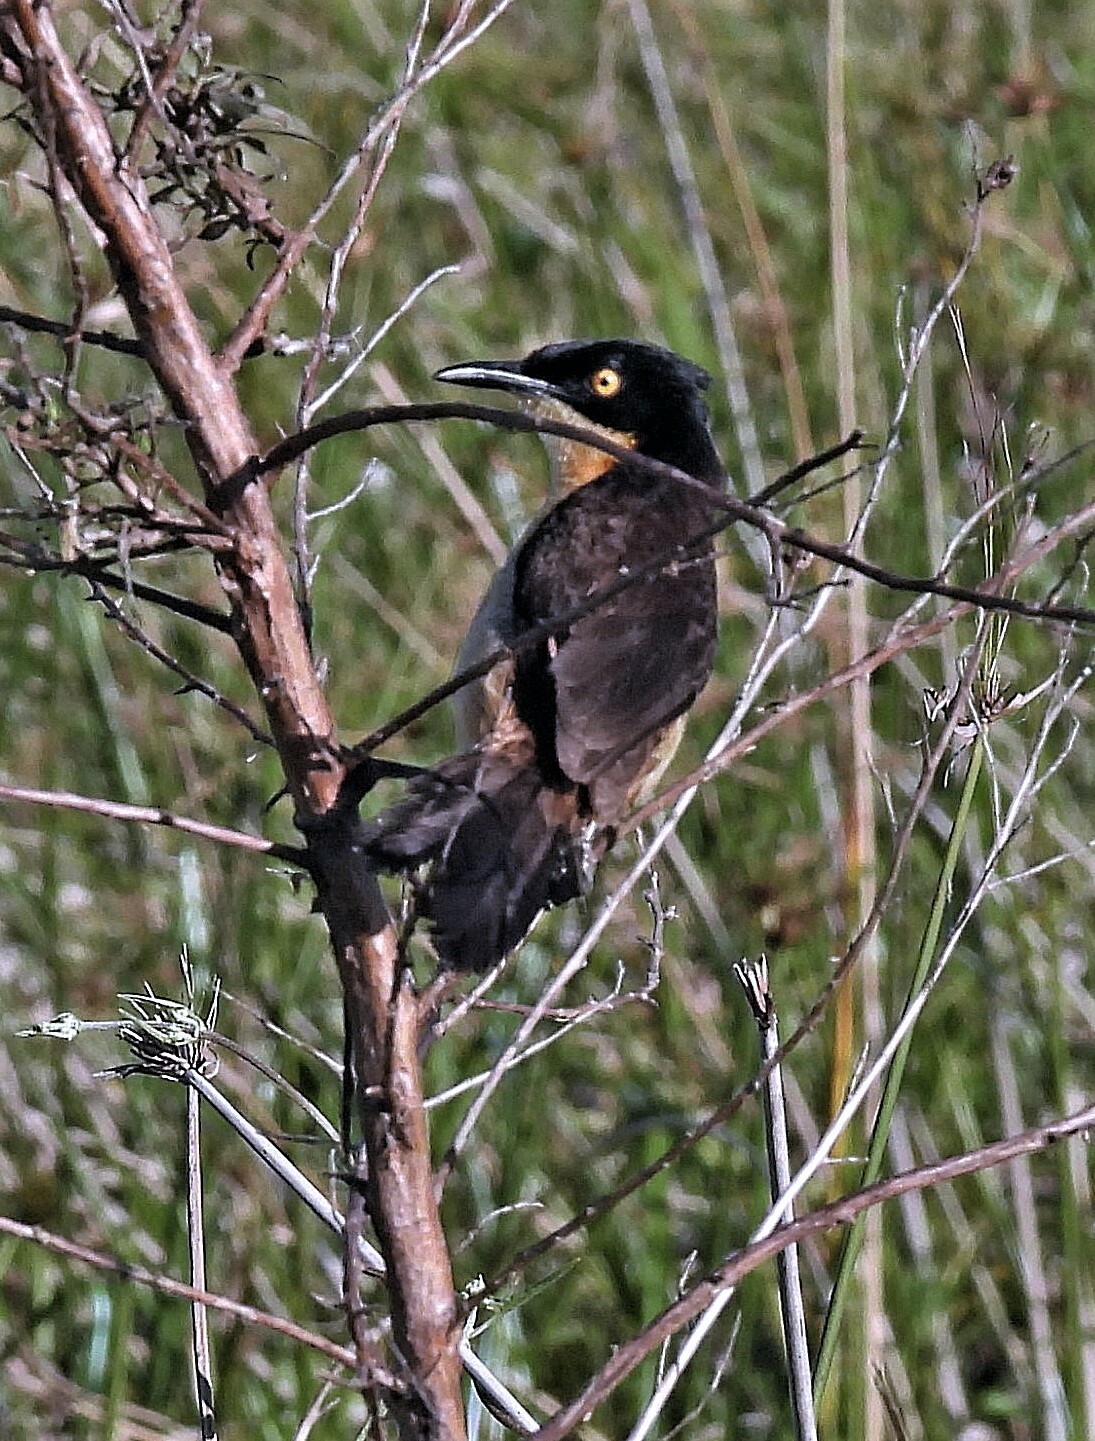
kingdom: Animalia
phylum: Chordata
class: Aves
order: Passeriformes
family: Donacobiidae
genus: Donacobius
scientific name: Donacobius atricapilla
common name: Black-capped donacobius
